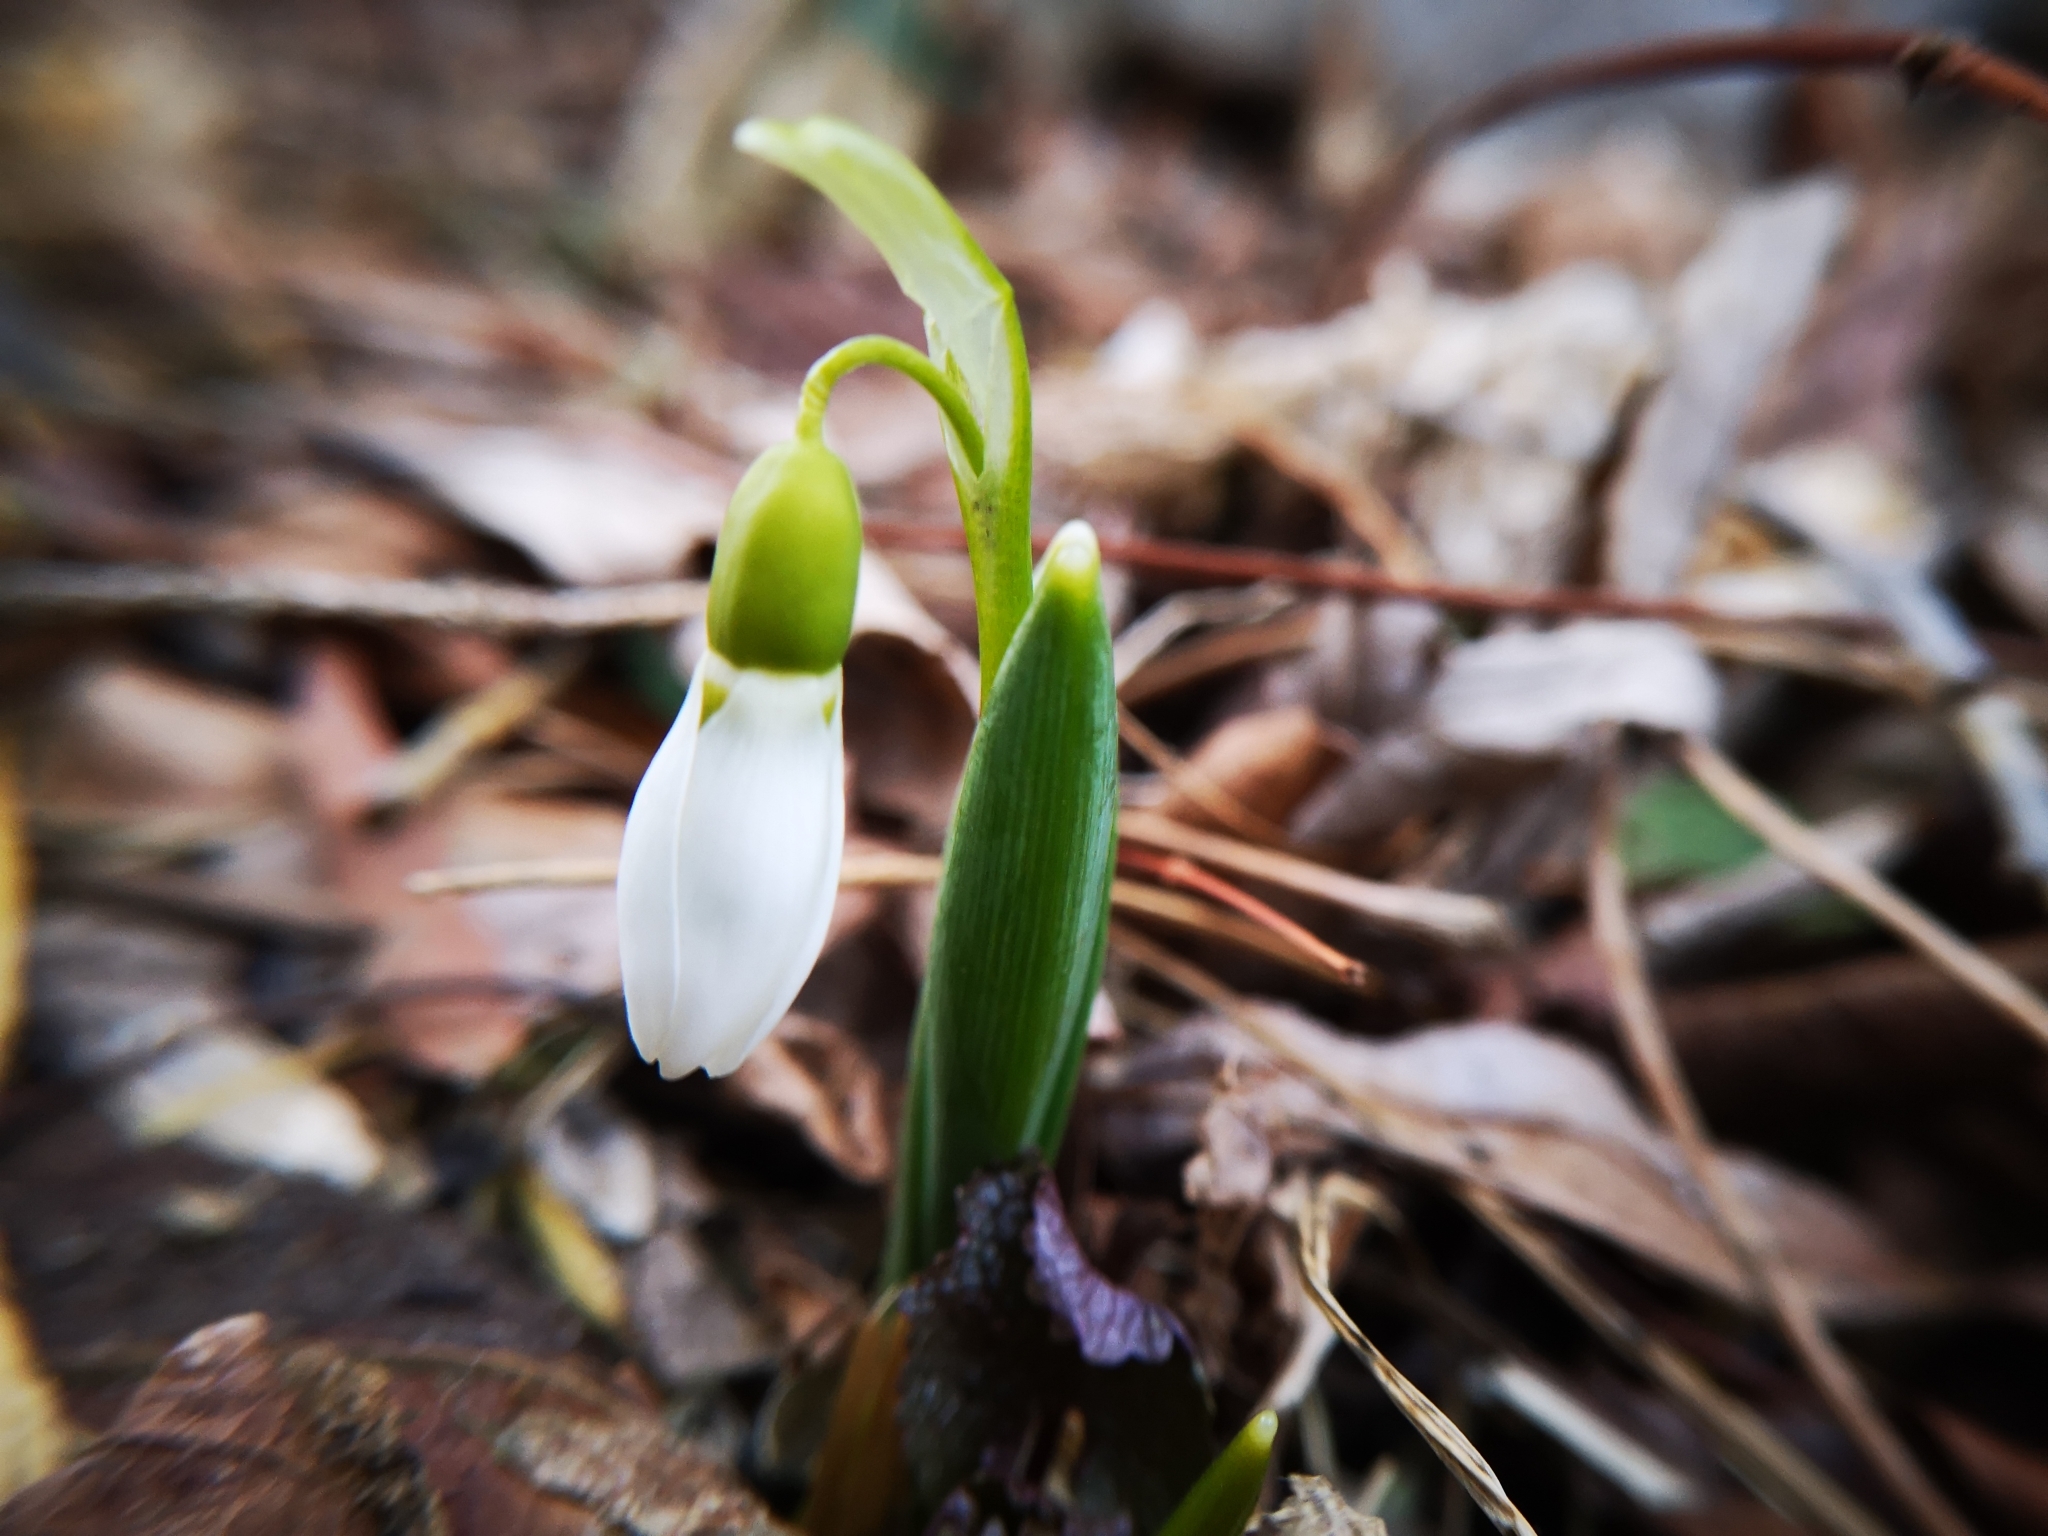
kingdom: Plantae
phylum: Tracheophyta
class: Liliopsida
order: Asparagales
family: Amaryllidaceae
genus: Galanthus
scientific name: Galanthus elwesii
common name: Greater snowdrop
